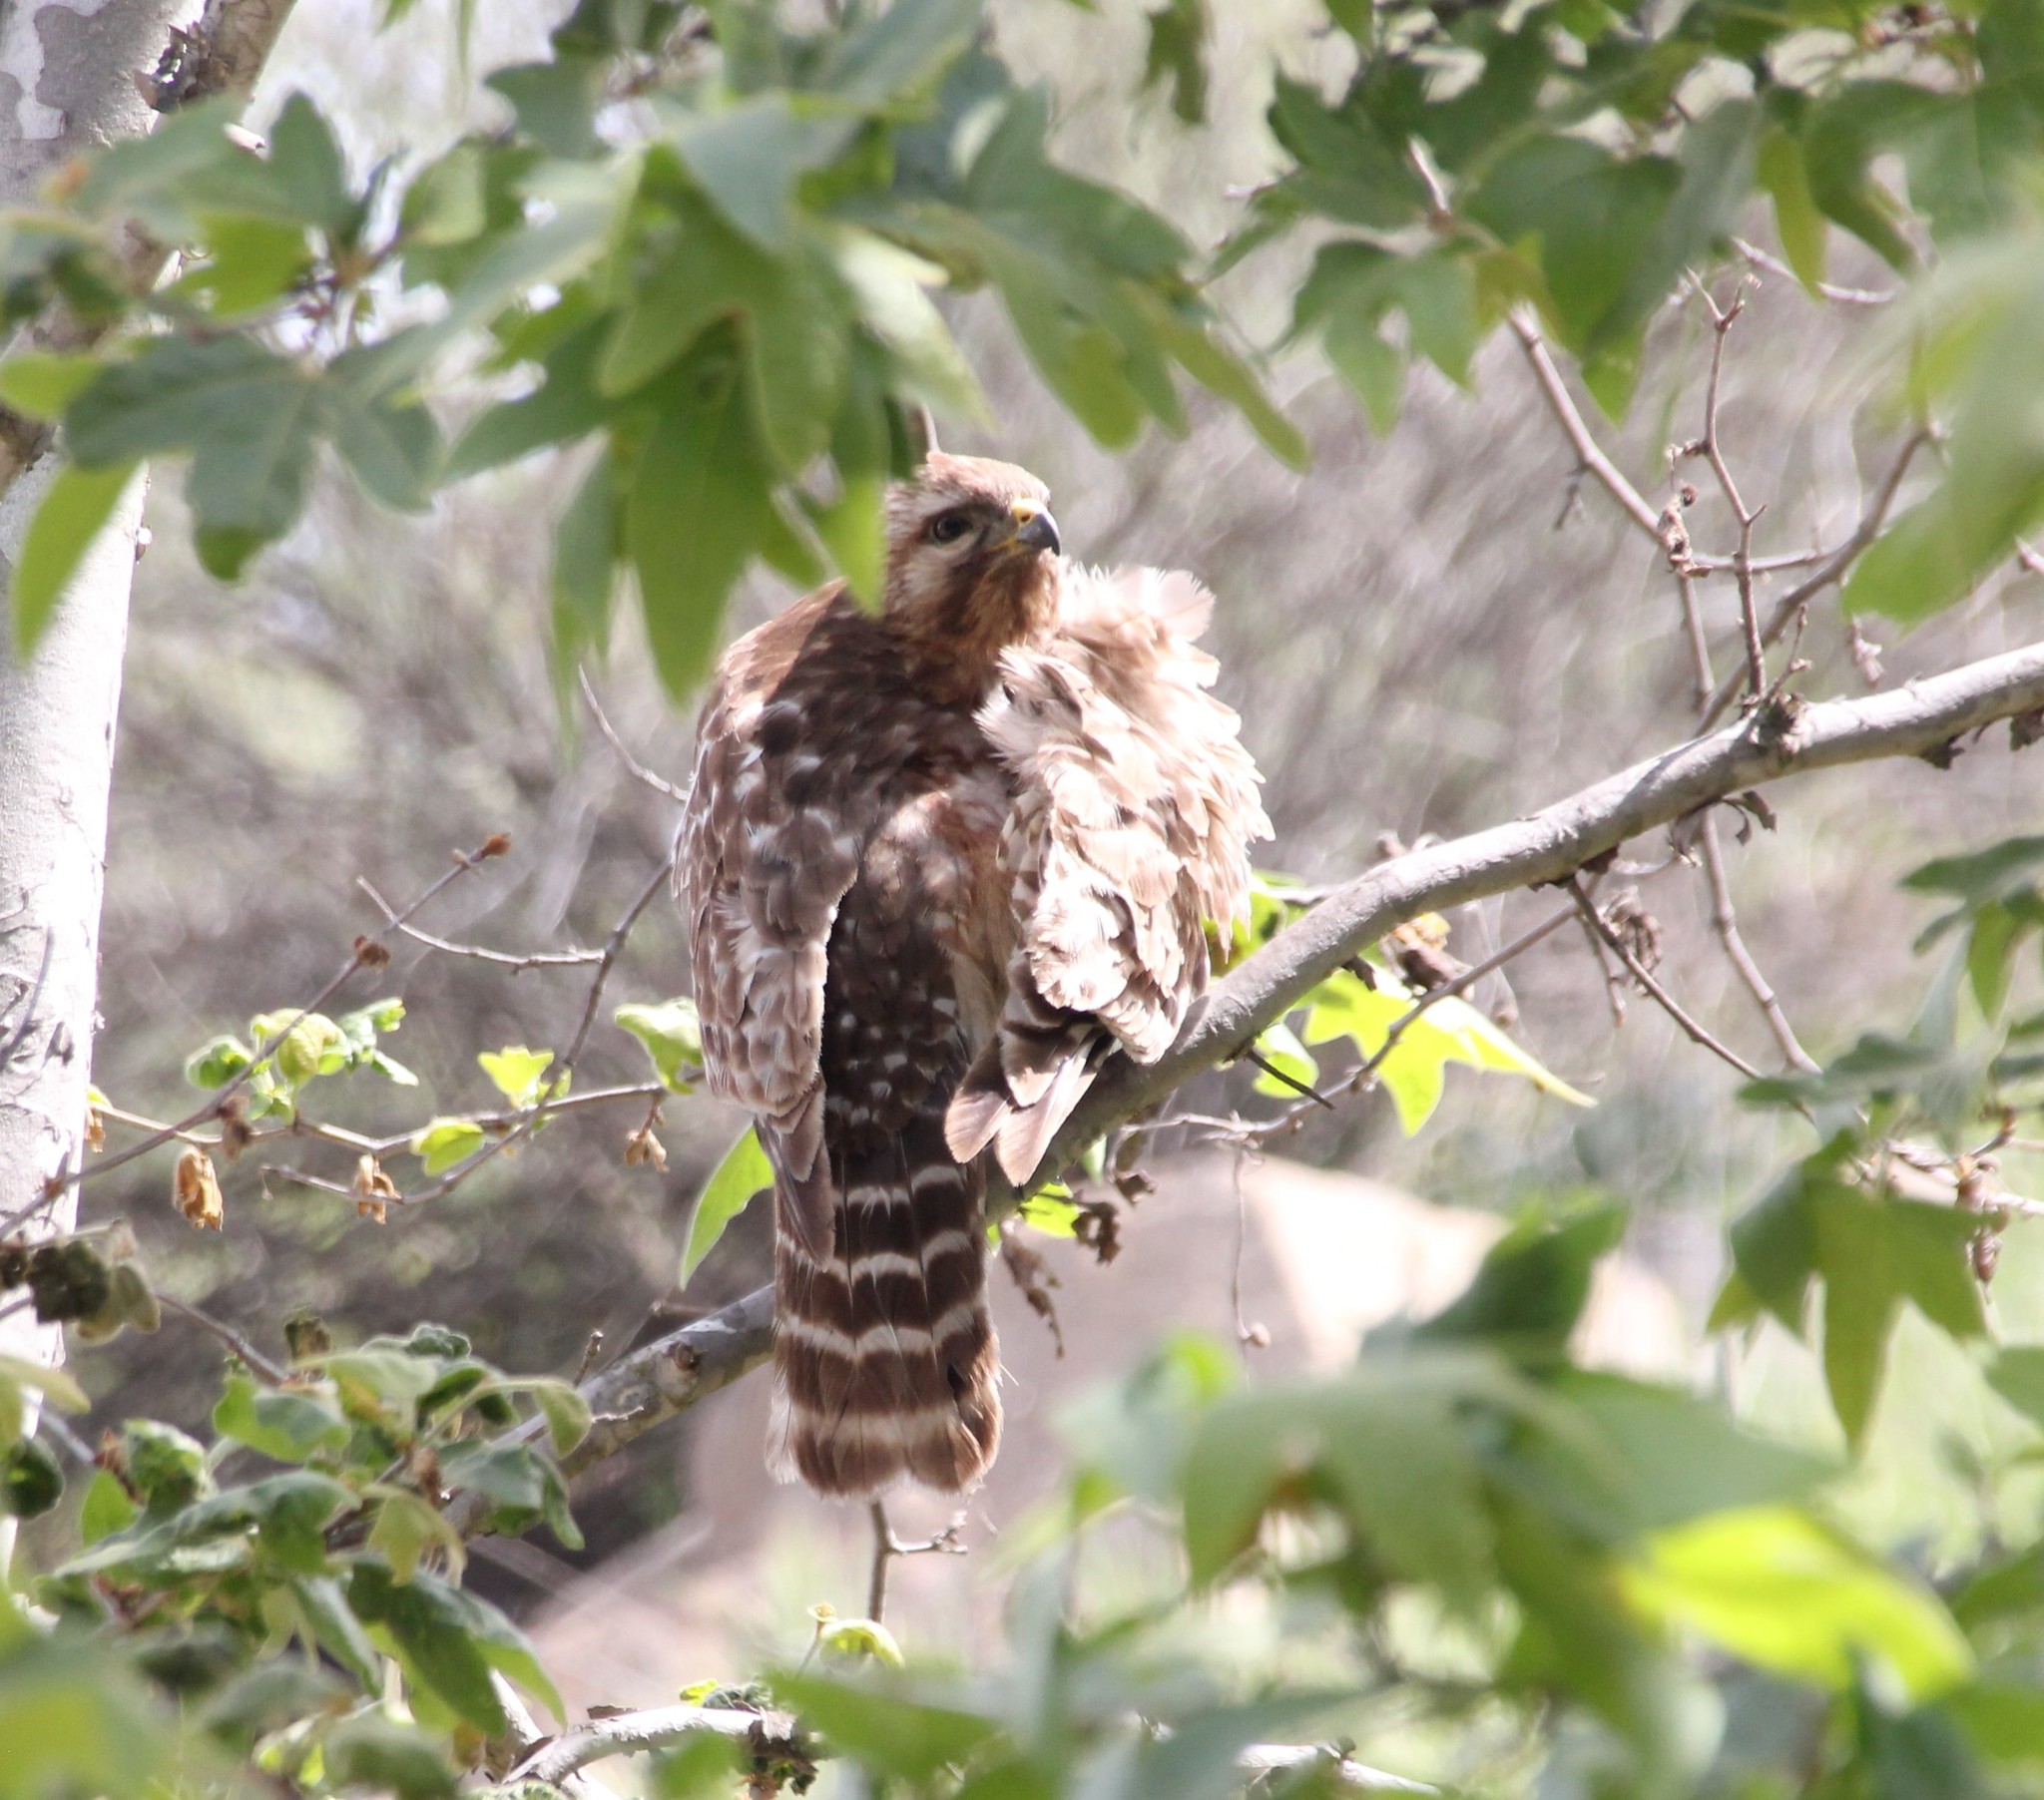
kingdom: Animalia
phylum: Chordata
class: Aves
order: Accipitriformes
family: Accipitridae
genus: Buteo
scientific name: Buteo lineatus
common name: Red-shouldered hawk
